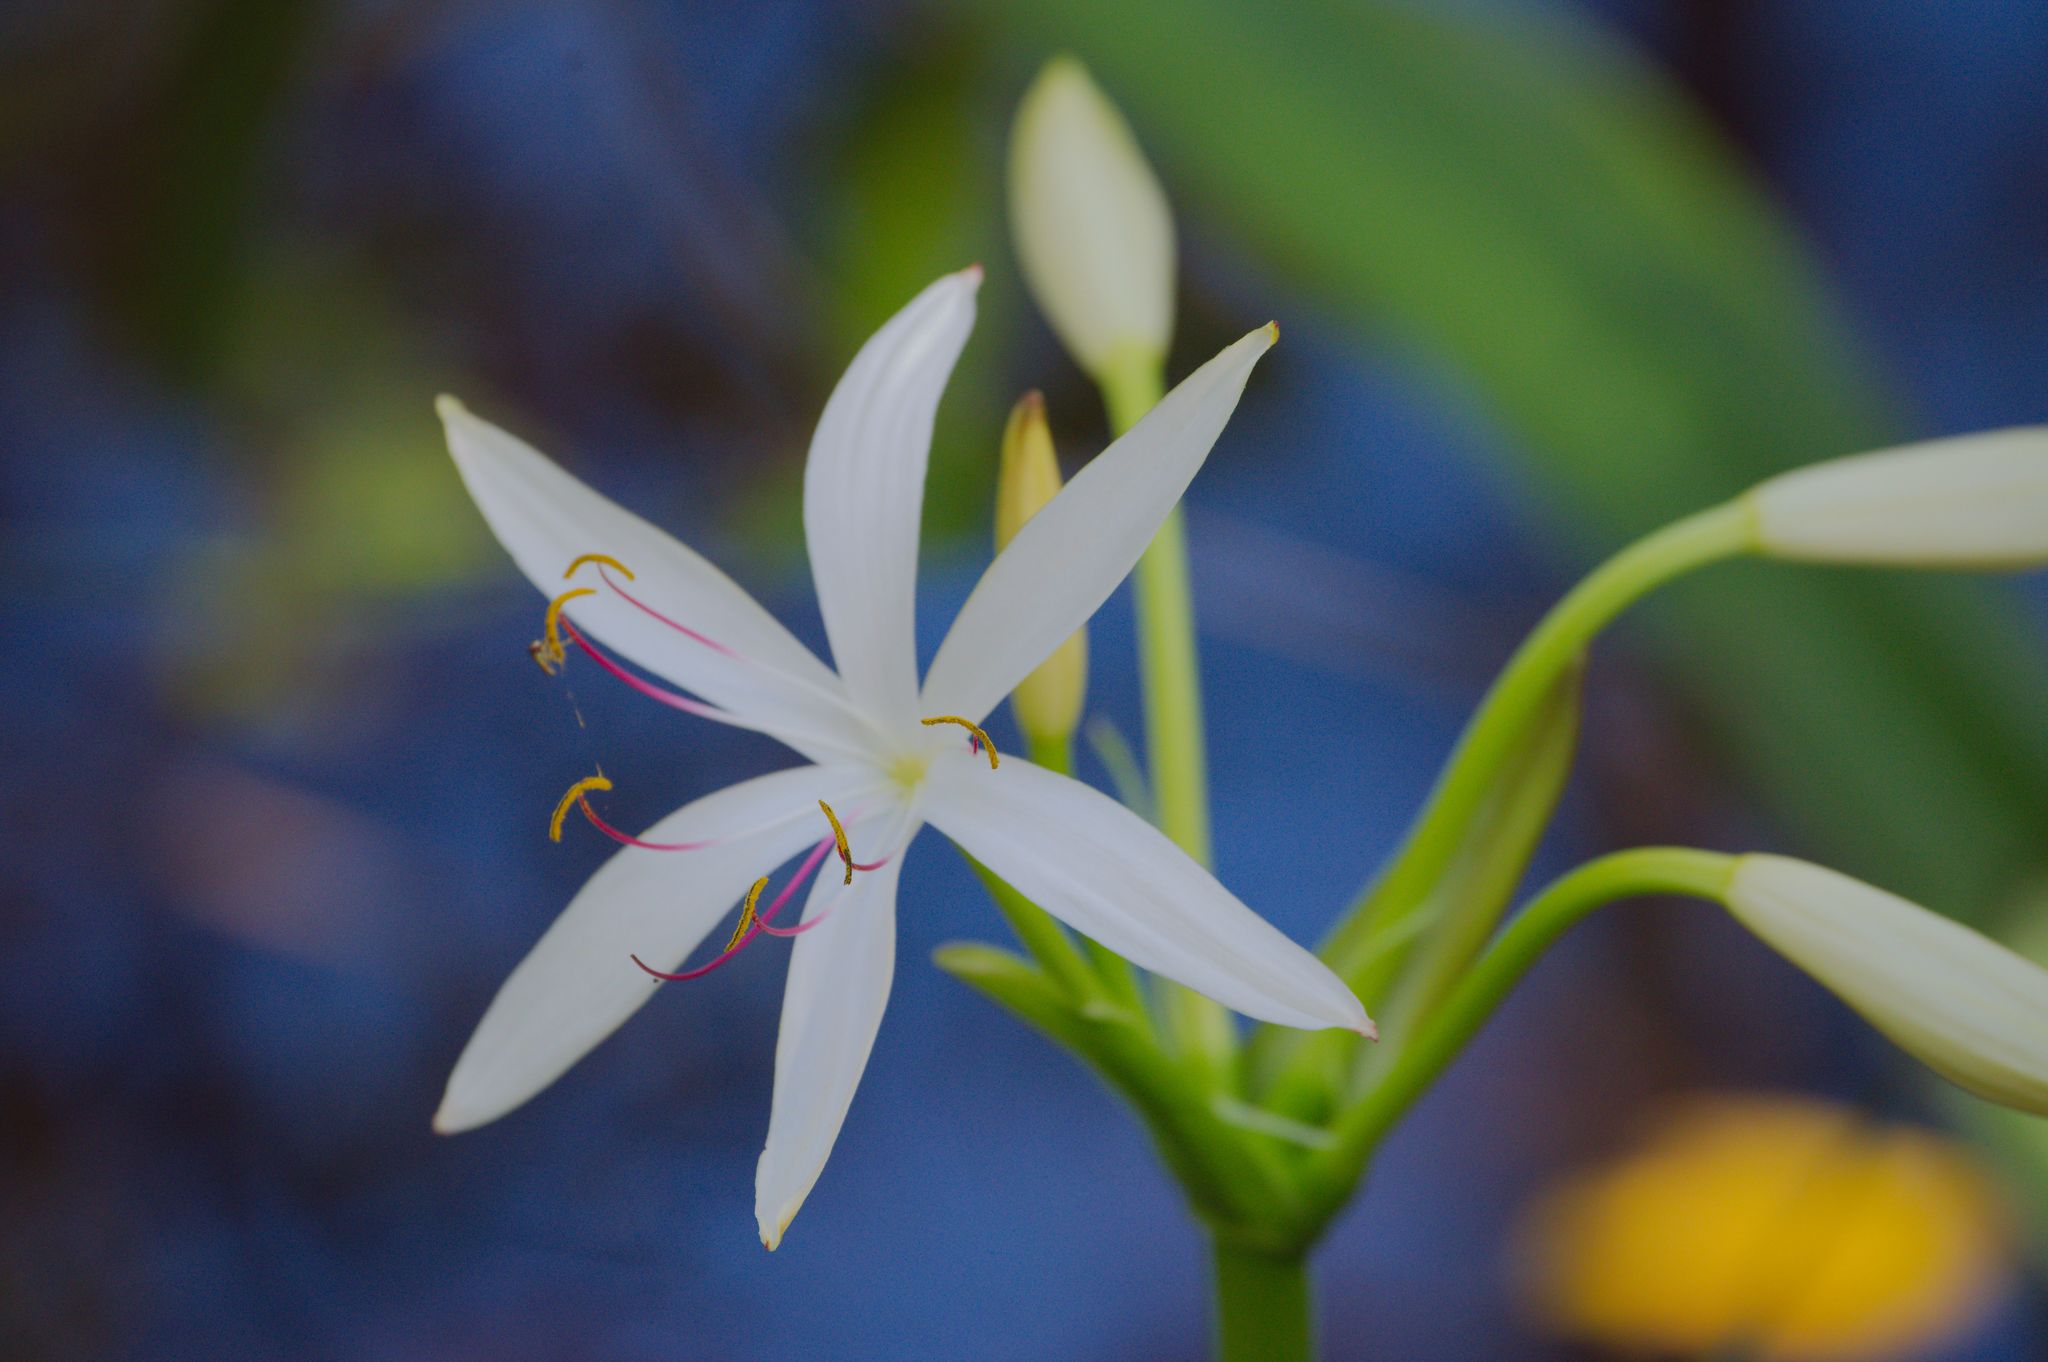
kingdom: Plantae
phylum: Tracheophyta
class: Liliopsida
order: Asparagales
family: Amaryllidaceae
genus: Crinum
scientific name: Crinum americanum
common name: Florida swamp-lily
